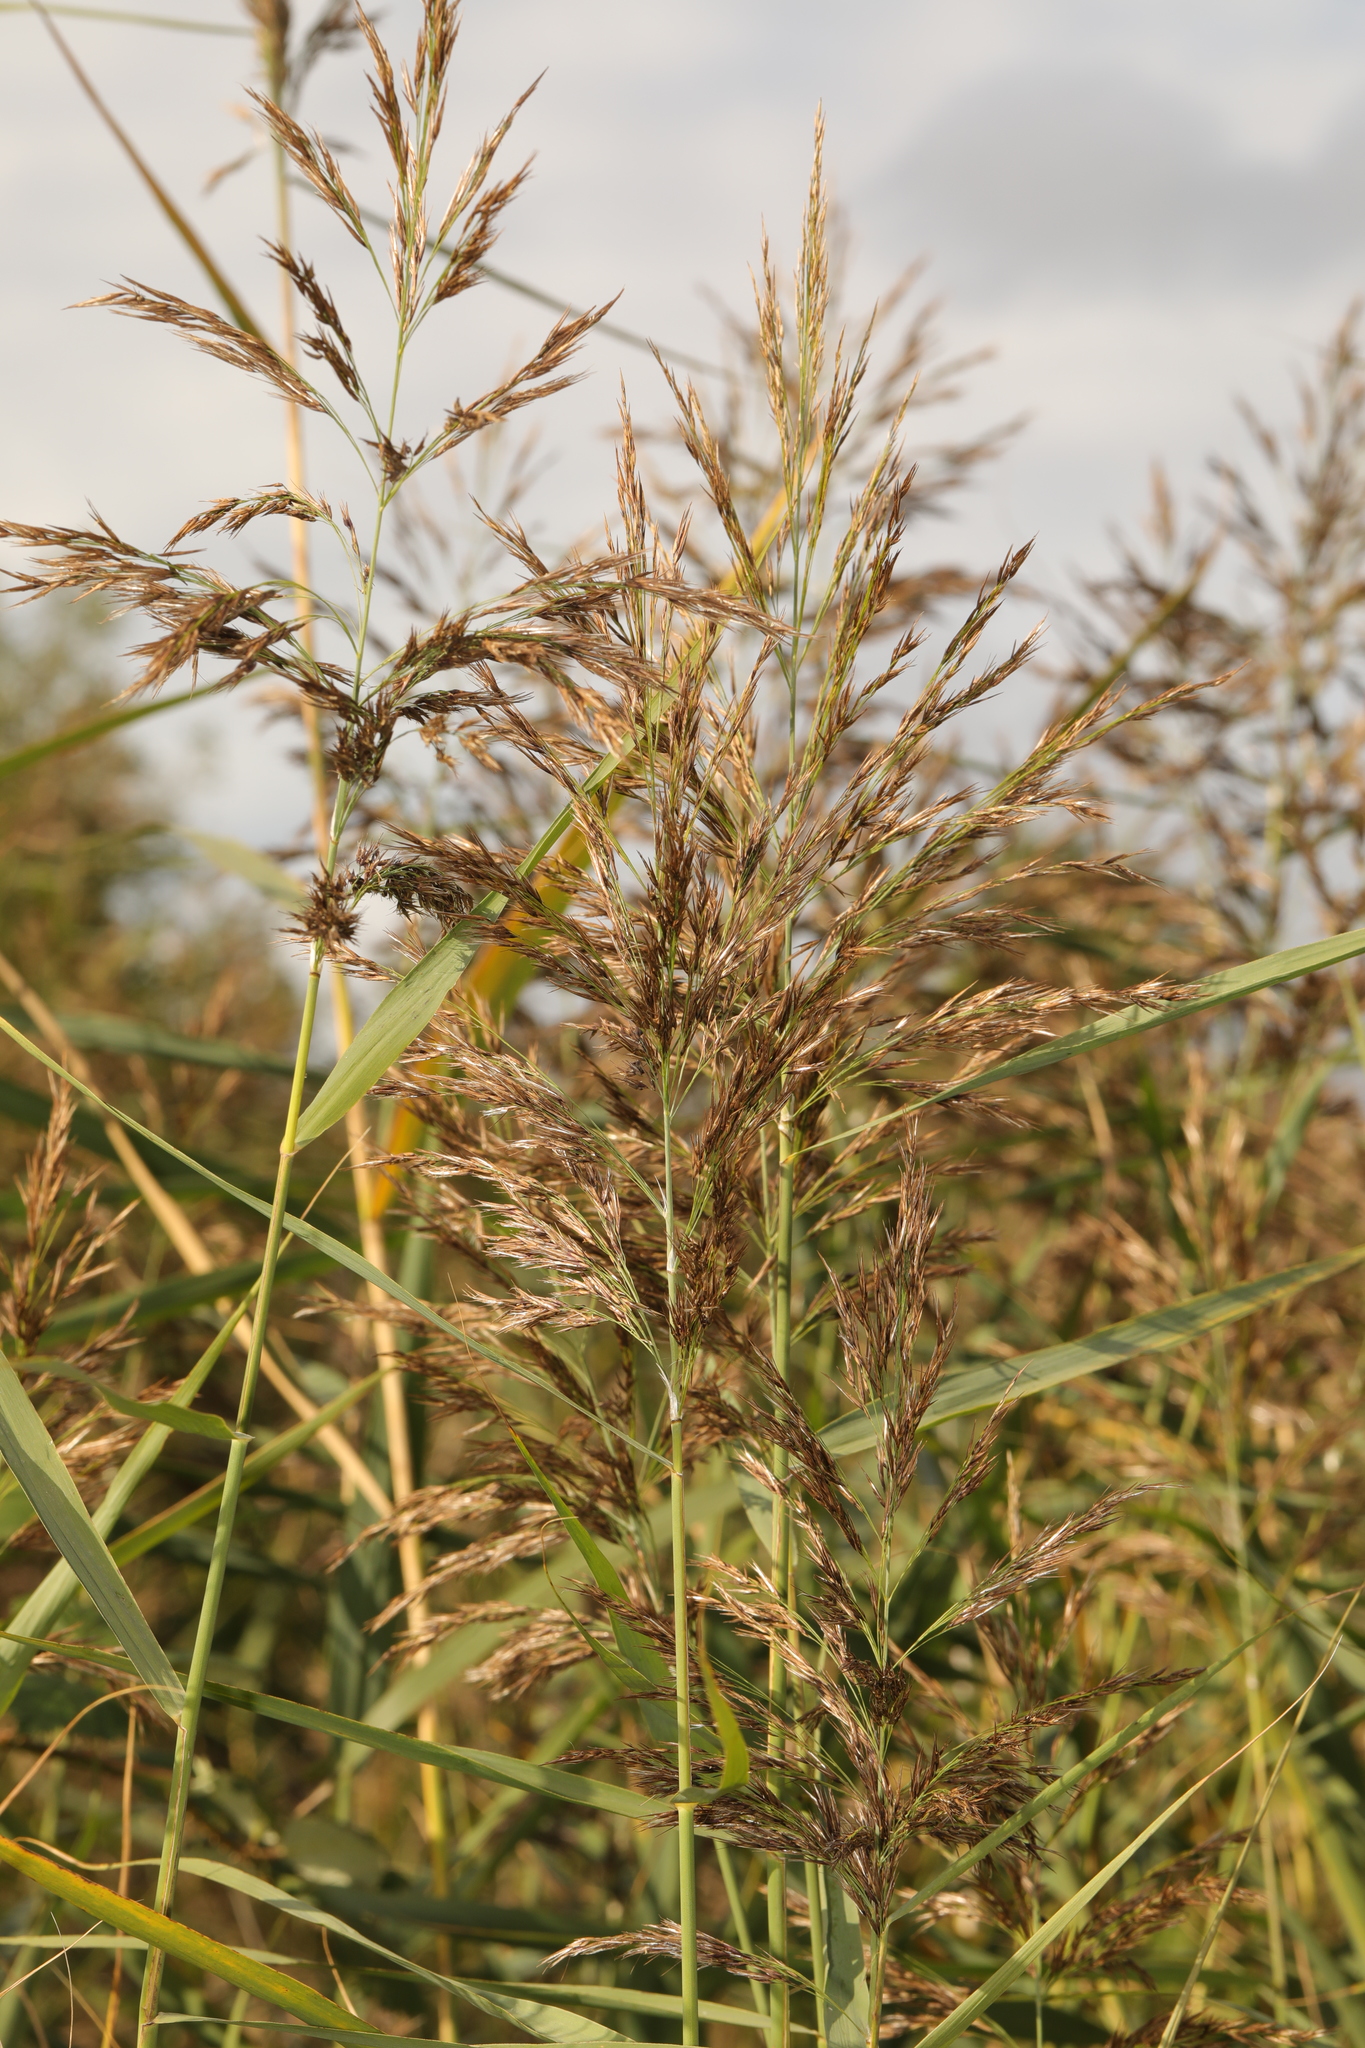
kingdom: Plantae
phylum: Tracheophyta
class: Liliopsida
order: Poales
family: Poaceae
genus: Phragmites
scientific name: Phragmites australis
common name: Common reed
